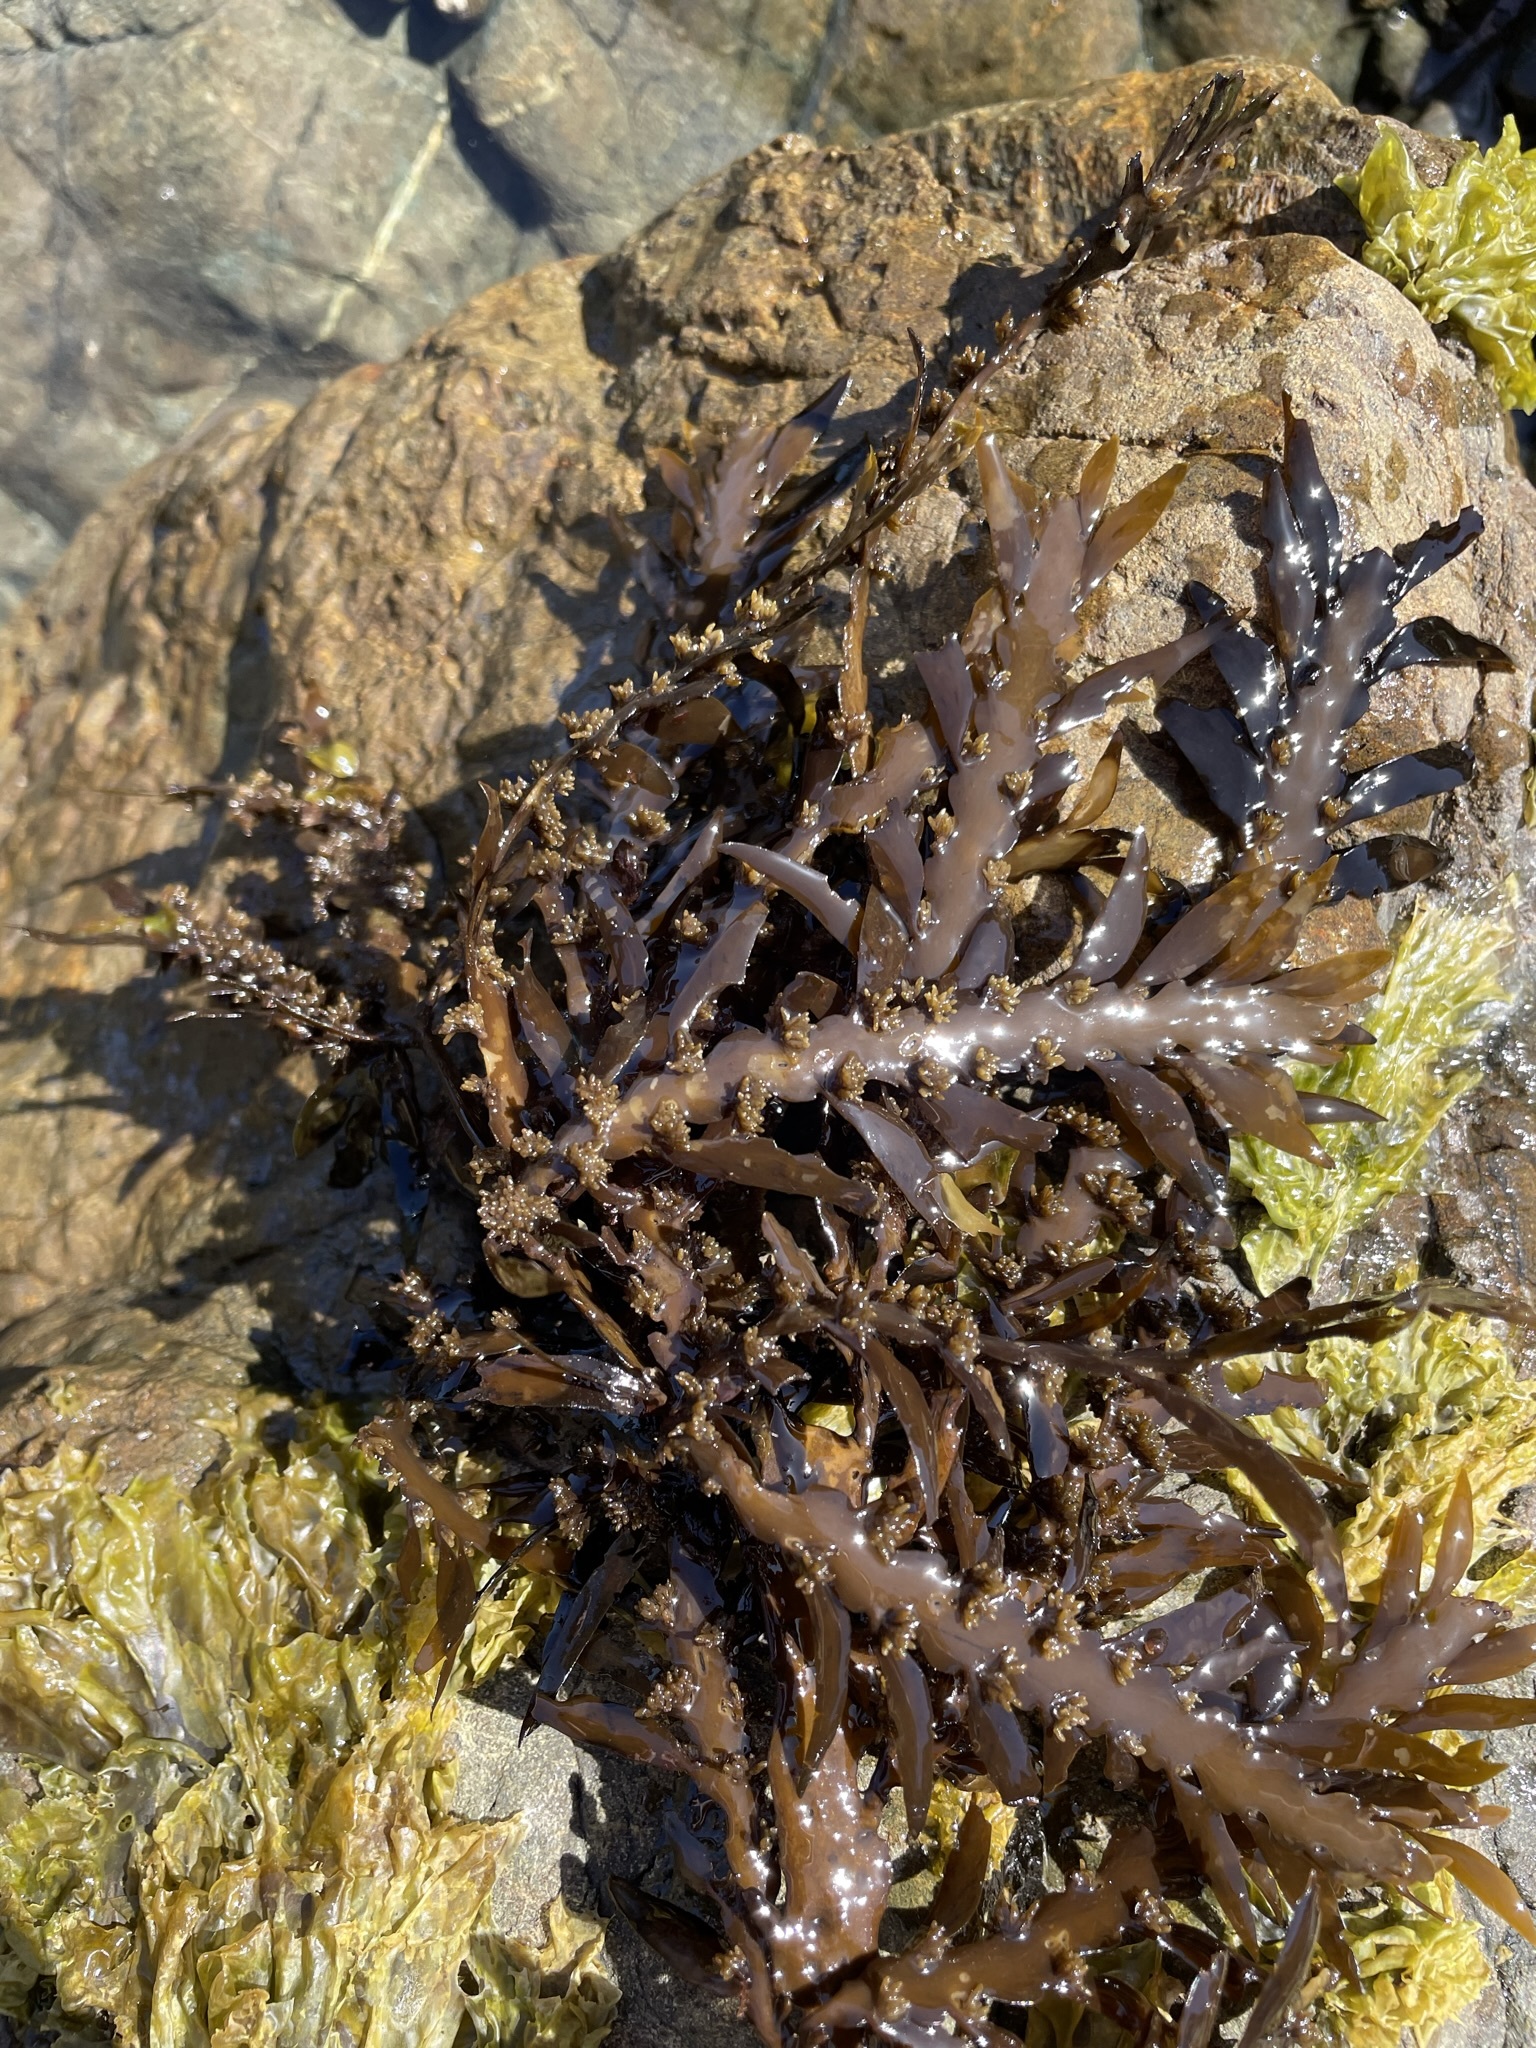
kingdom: Chromista
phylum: Ochrophyta
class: Phaeophyceae
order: Fucales
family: Sargassaceae
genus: Carpophyllum
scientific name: Carpophyllum maschalocarpum
